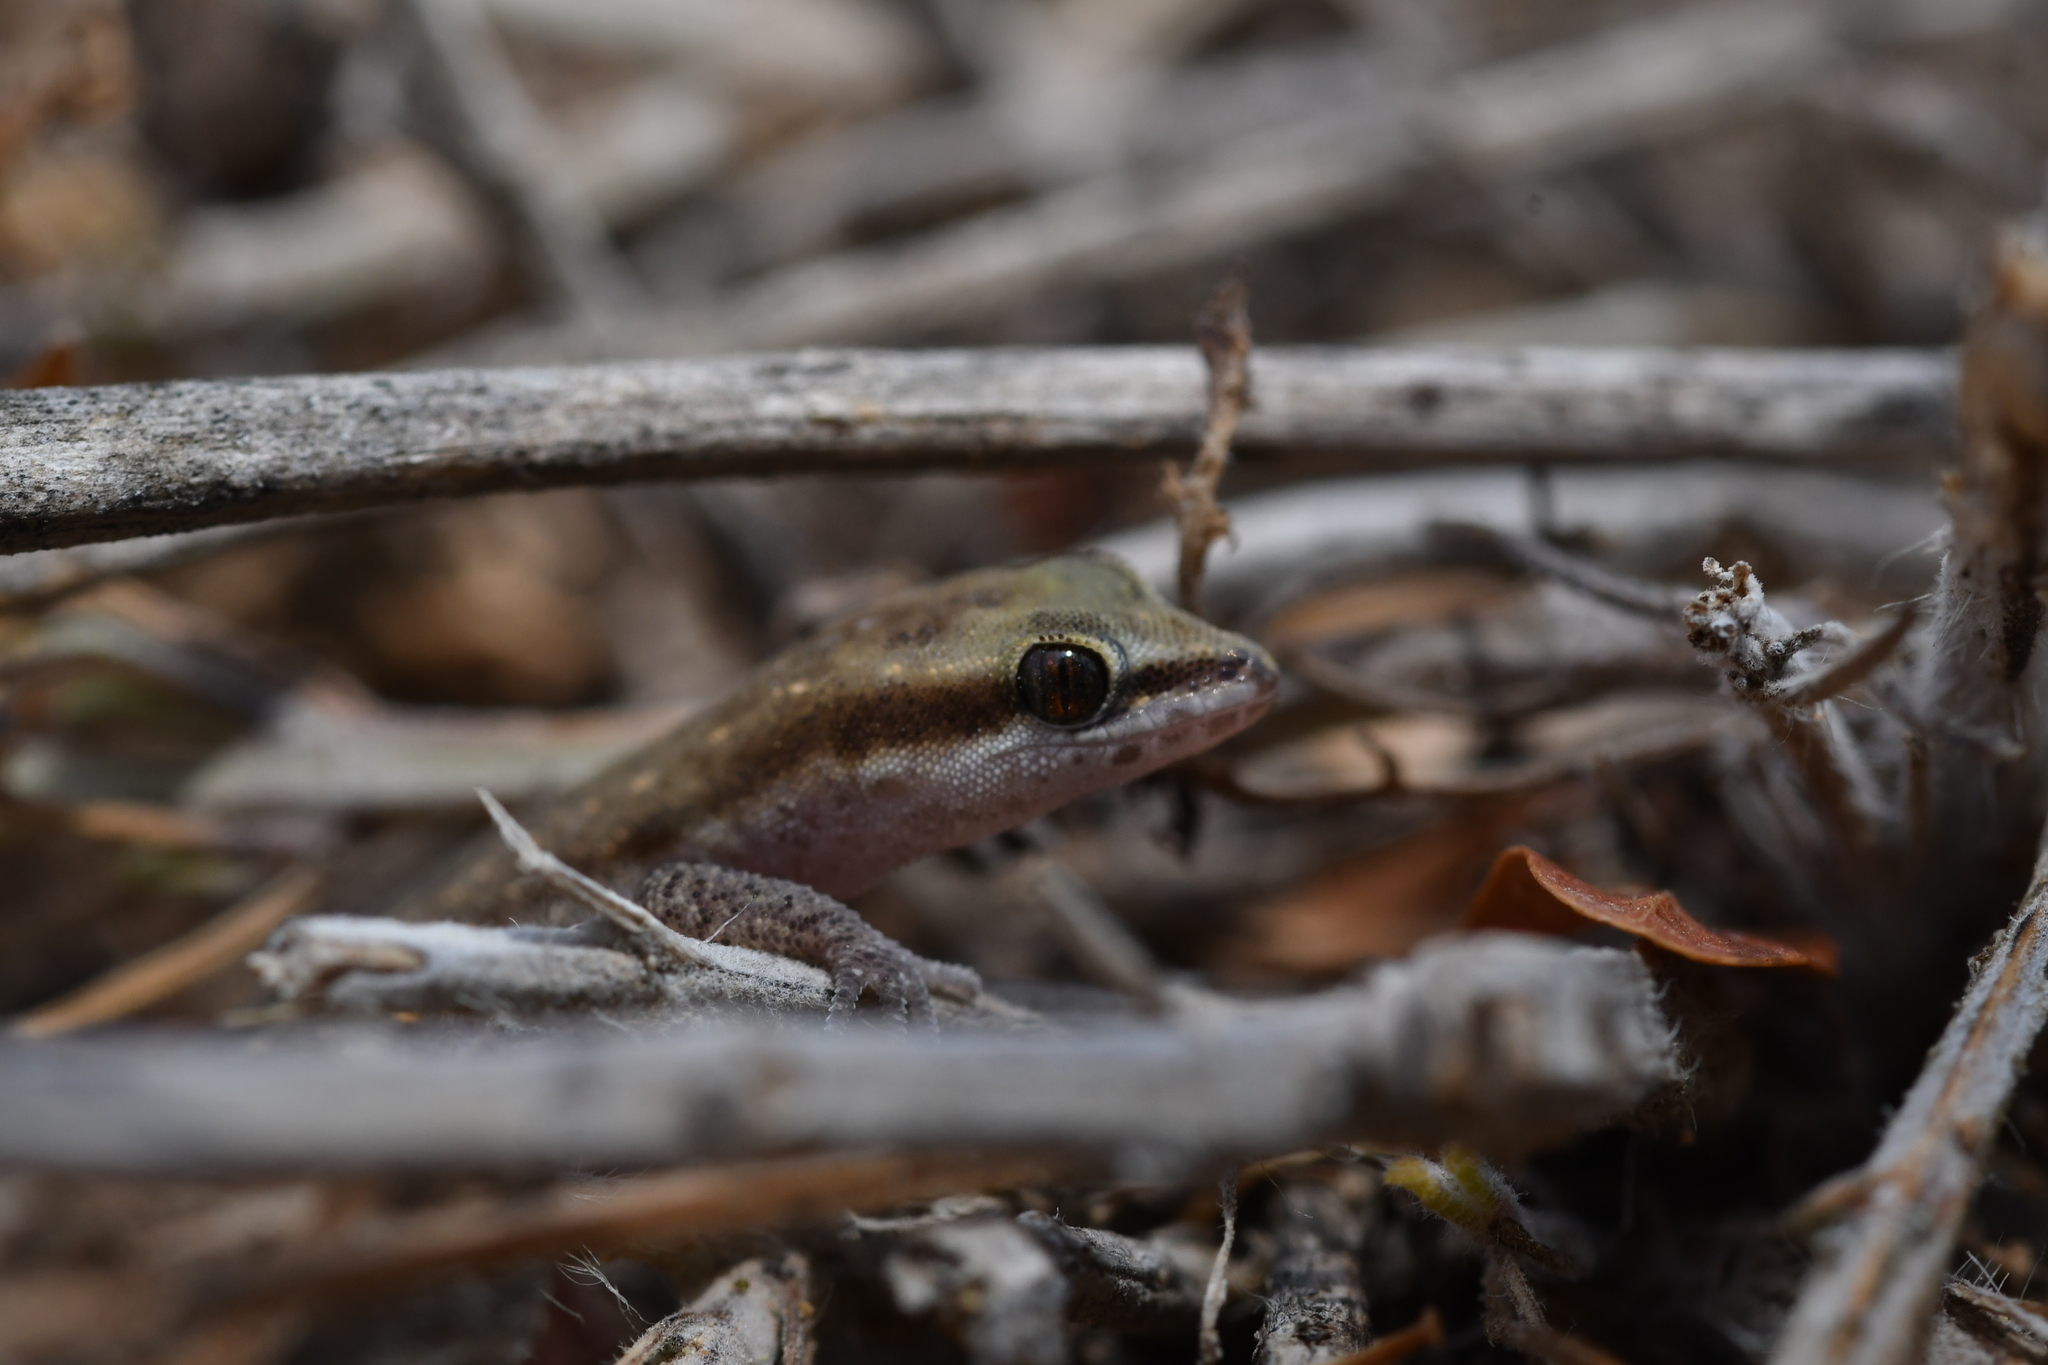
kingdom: Animalia
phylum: Chordata
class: Squamata
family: Sphaerodactylidae
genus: Saurodactylus
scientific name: Saurodactylus brosseti
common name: Morocco lizard-fingered gecko
